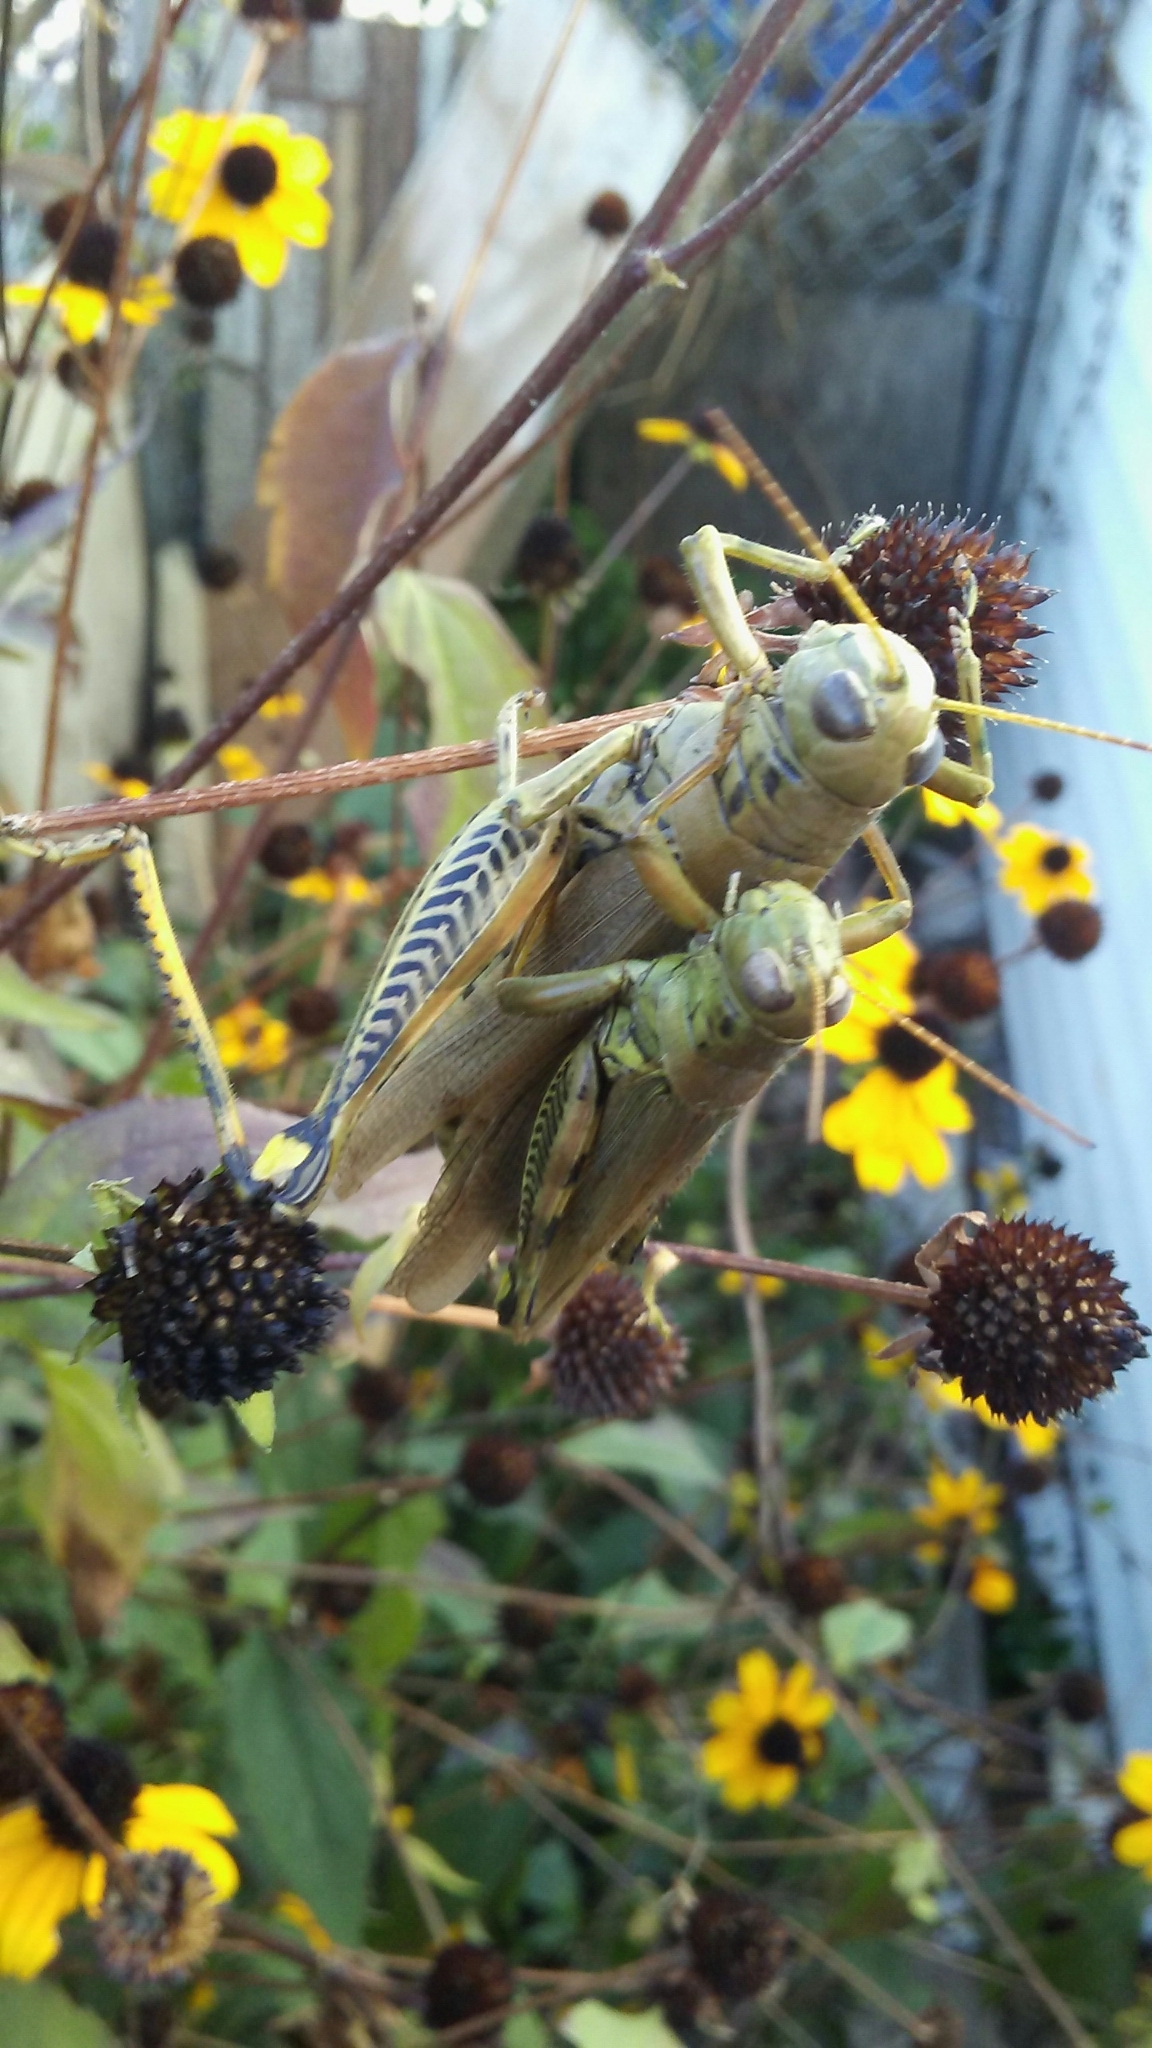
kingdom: Animalia
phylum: Arthropoda
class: Insecta
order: Orthoptera
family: Acrididae
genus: Melanoplus
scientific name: Melanoplus differentialis
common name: Differential grasshopper
